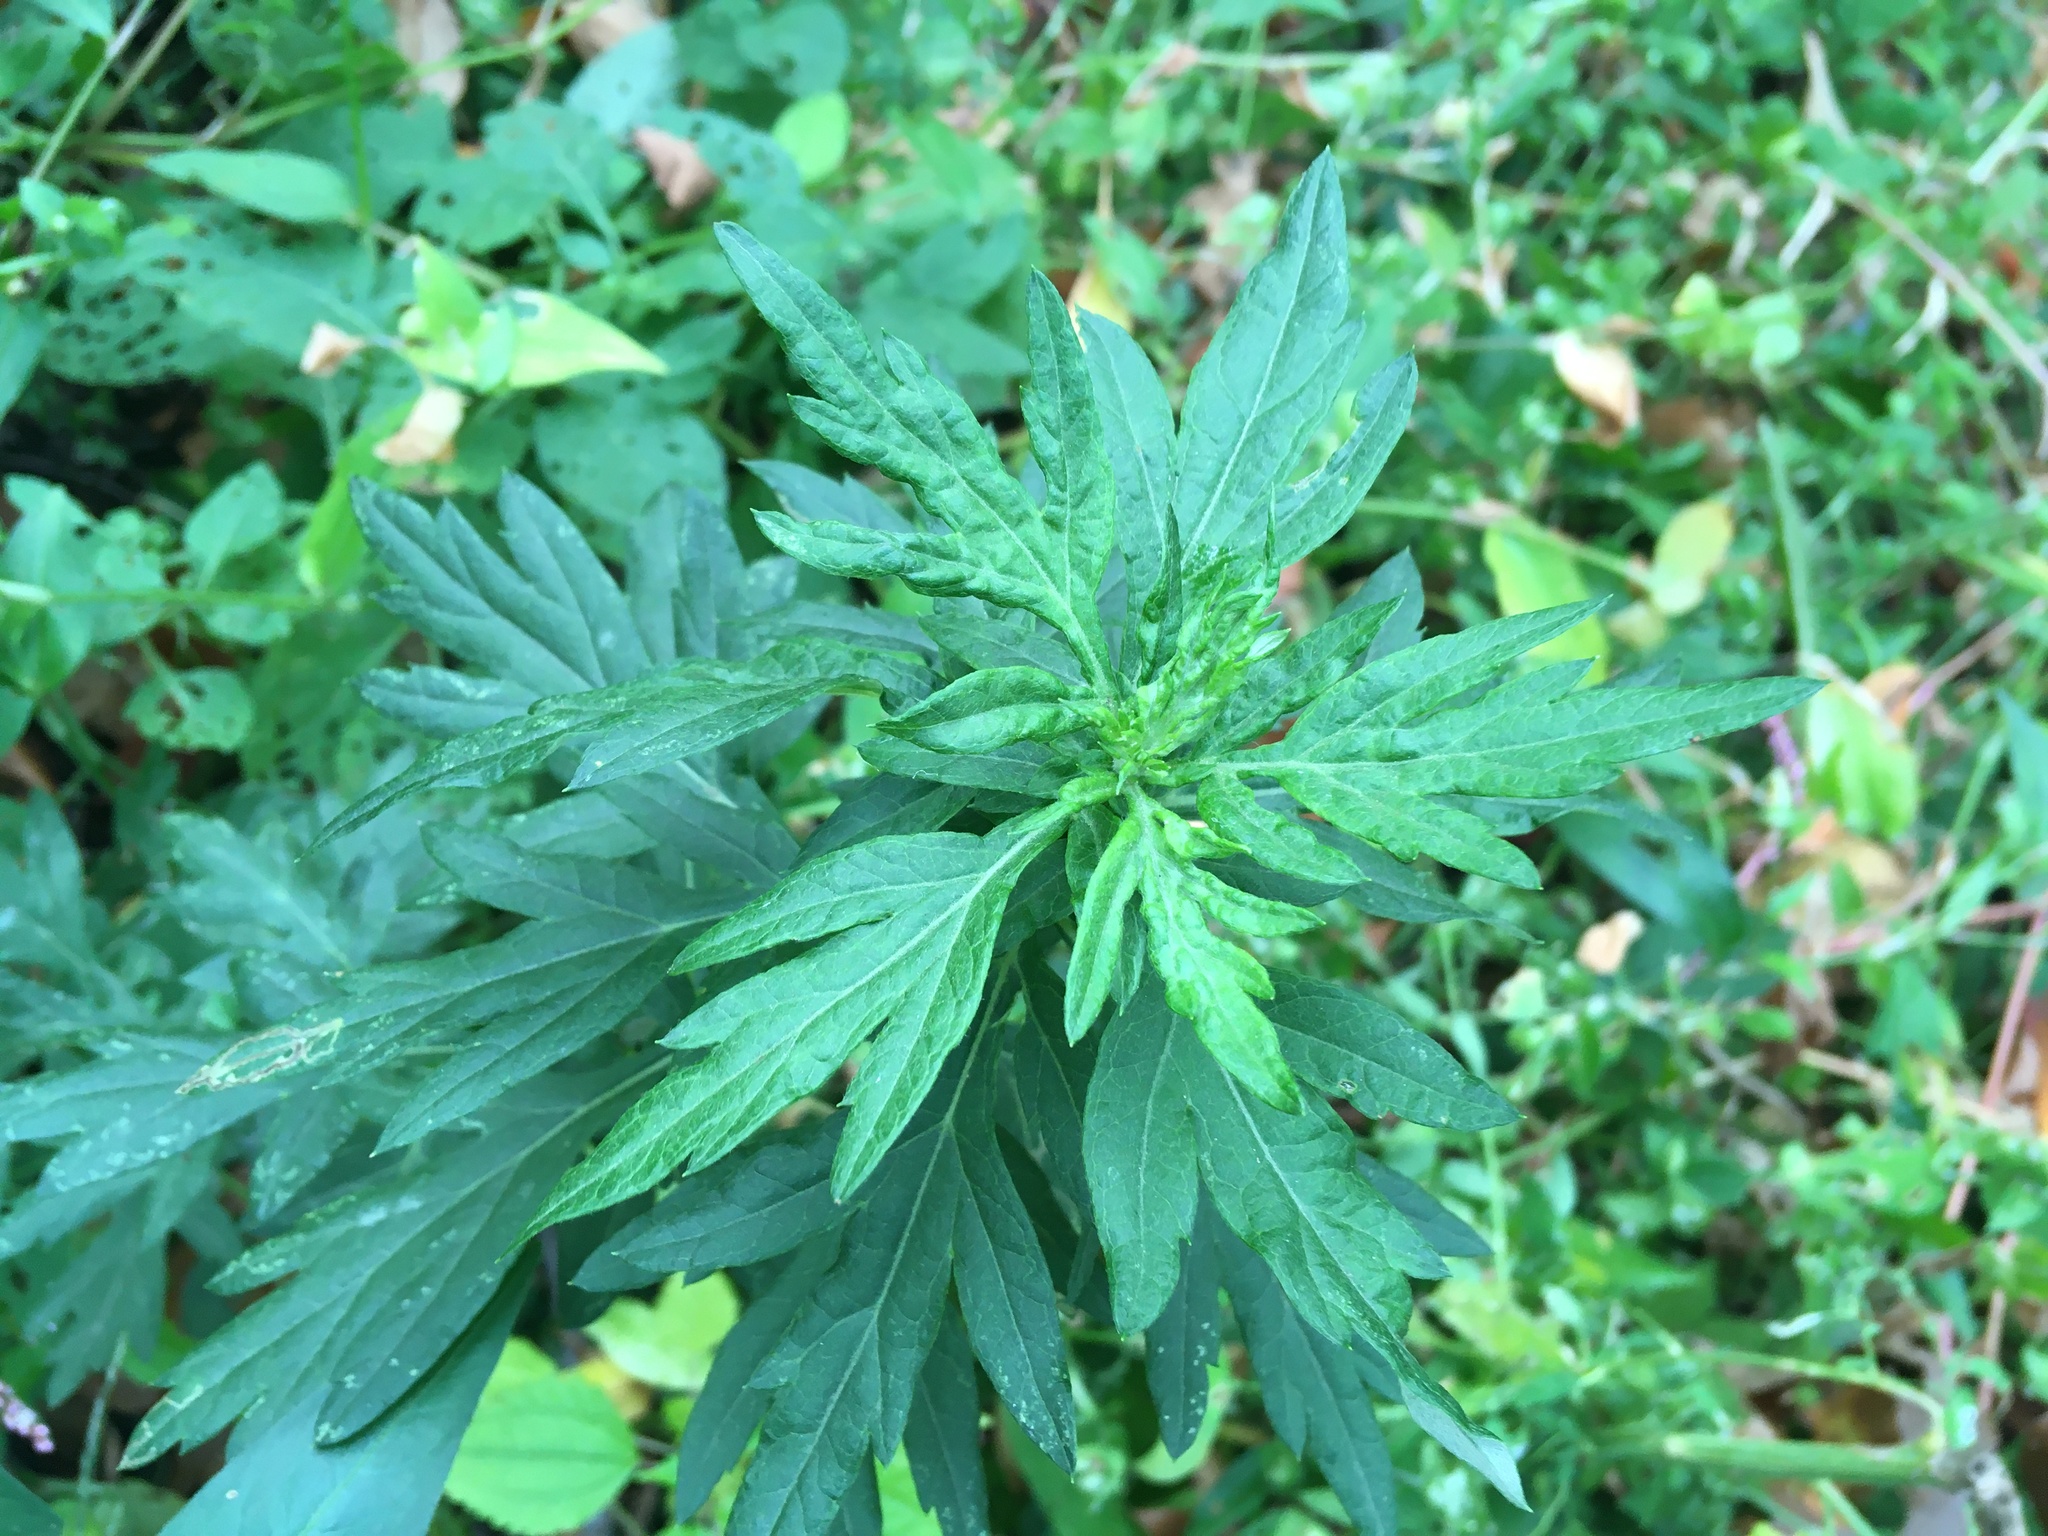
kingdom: Plantae
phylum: Tracheophyta
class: Magnoliopsida
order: Asterales
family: Asteraceae
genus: Artemisia
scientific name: Artemisia vulgaris
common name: Mugwort
